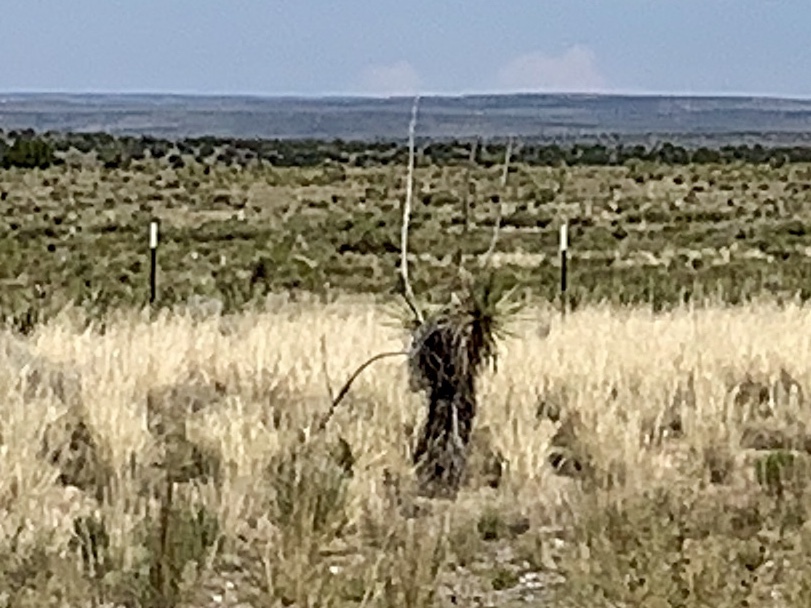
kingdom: Plantae
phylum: Tracheophyta
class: Liliopsida
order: Asparagales
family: Asparagaceae
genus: Yucca
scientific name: Yucca elata
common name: Palmella
